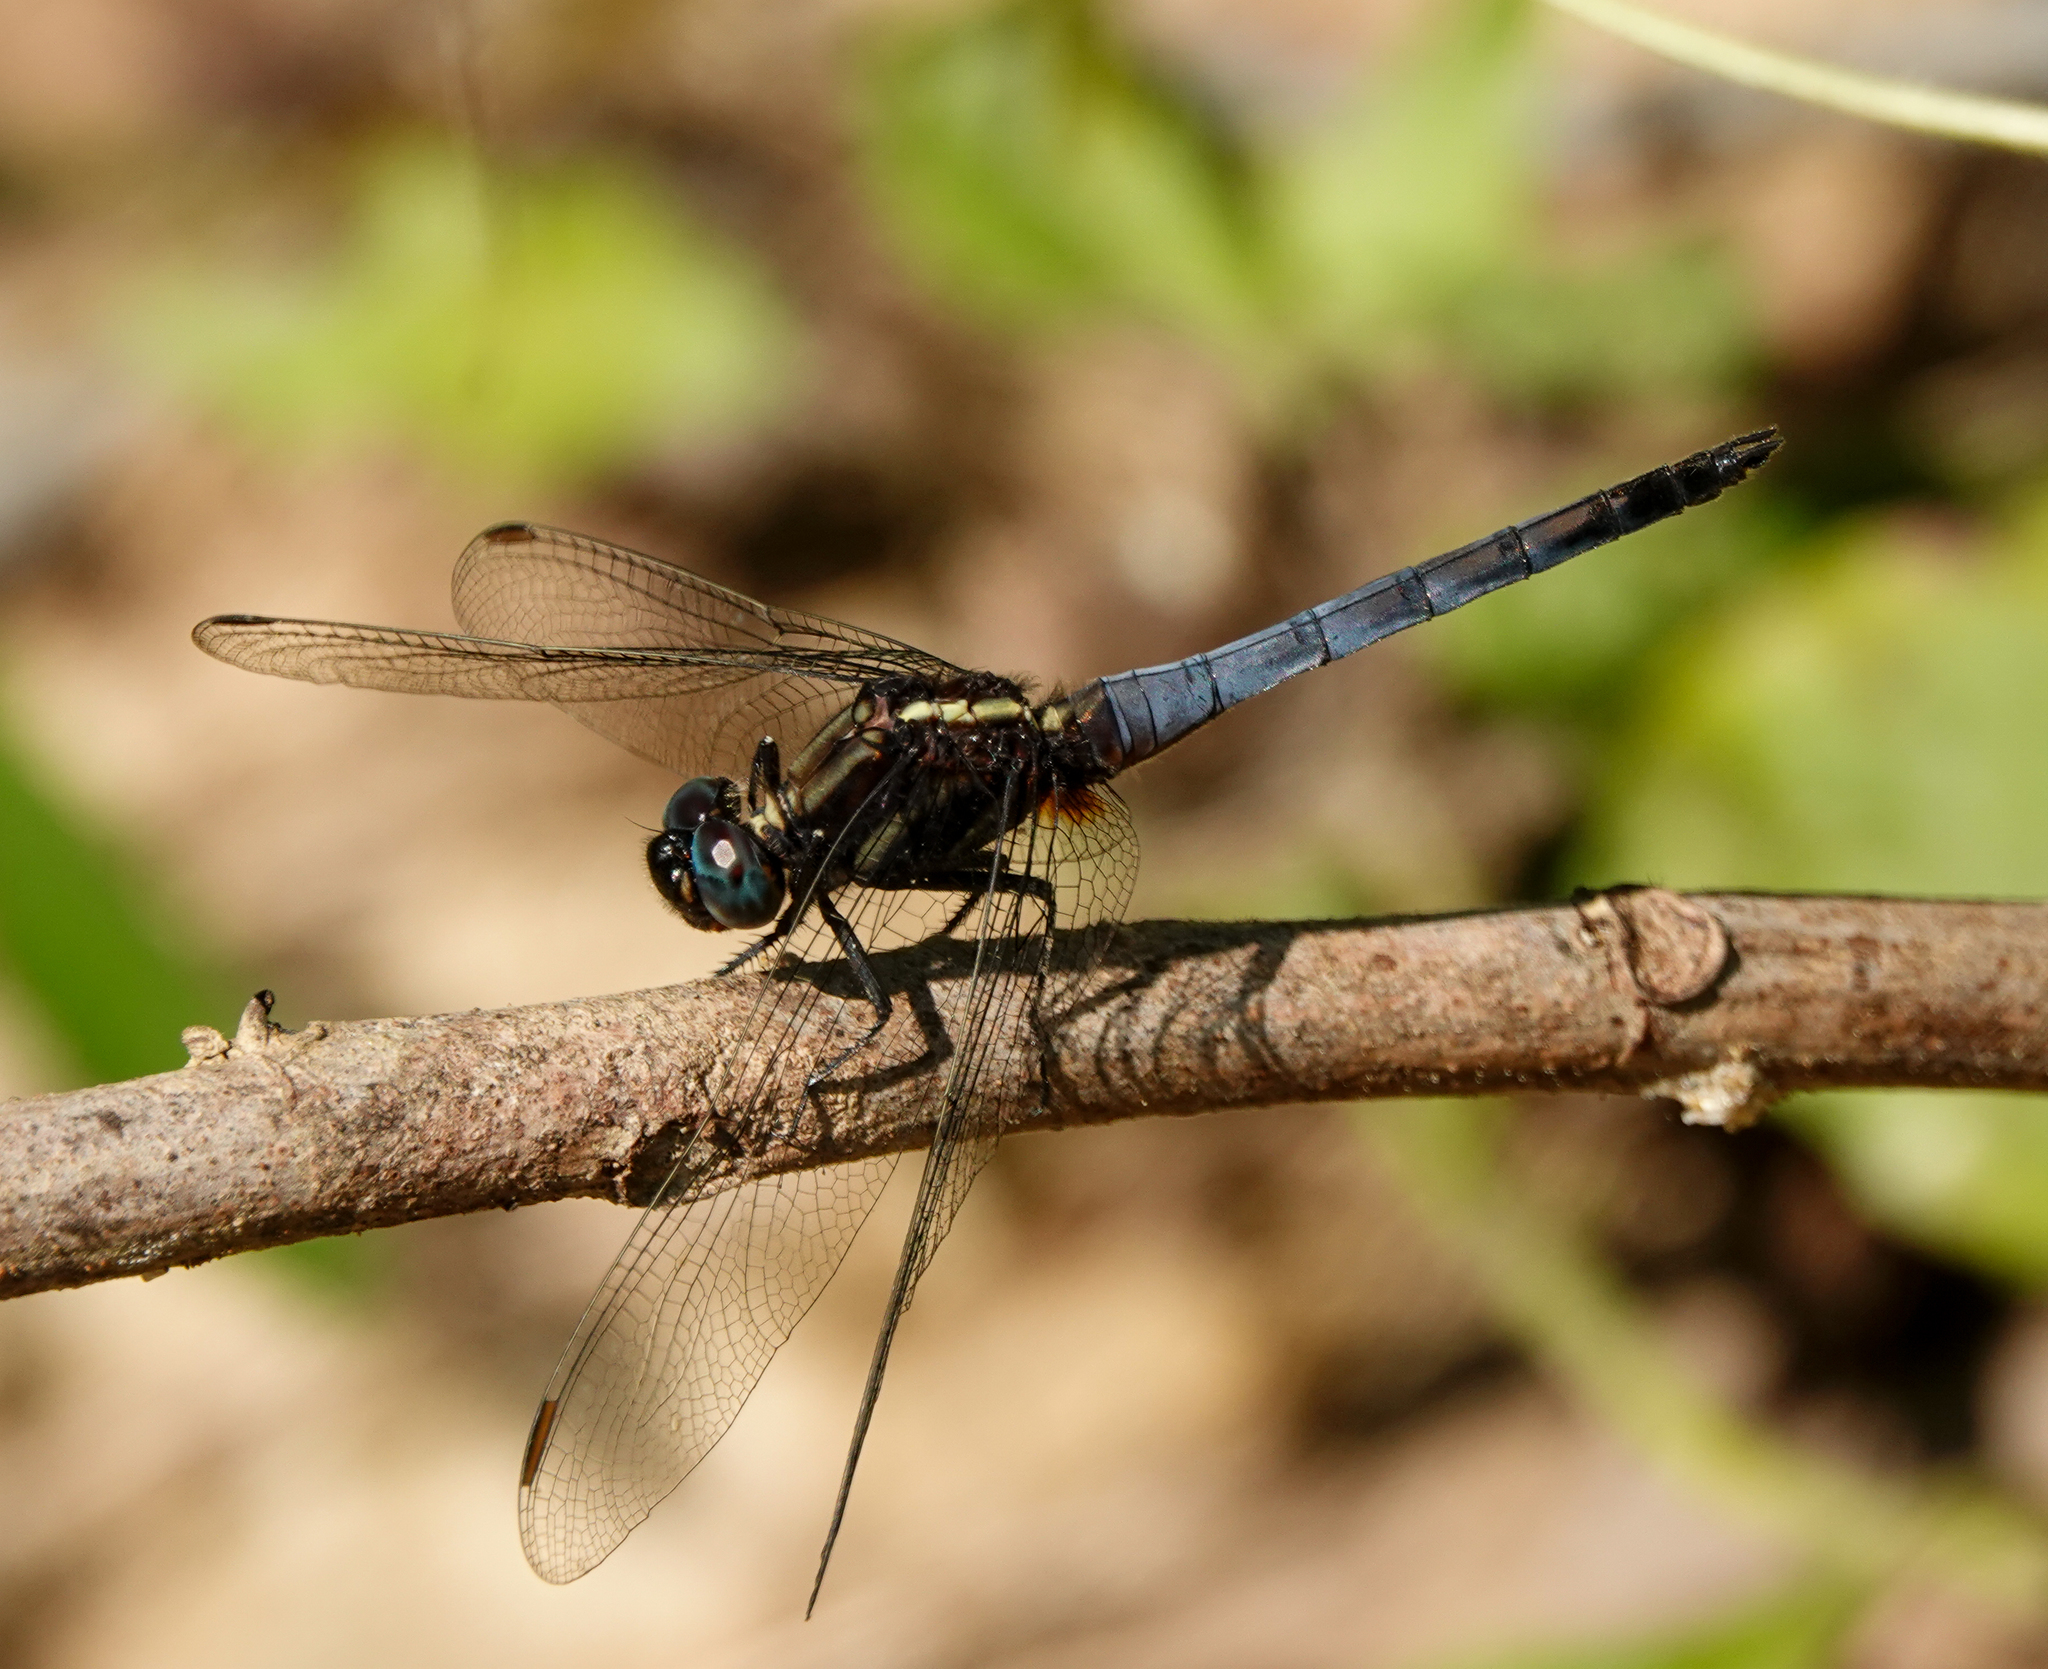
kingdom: Animalia
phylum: Arthropoda
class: Insecta
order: Odonata
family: Libellulidae
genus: Orthetrum
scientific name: Orthetrum glaucum
